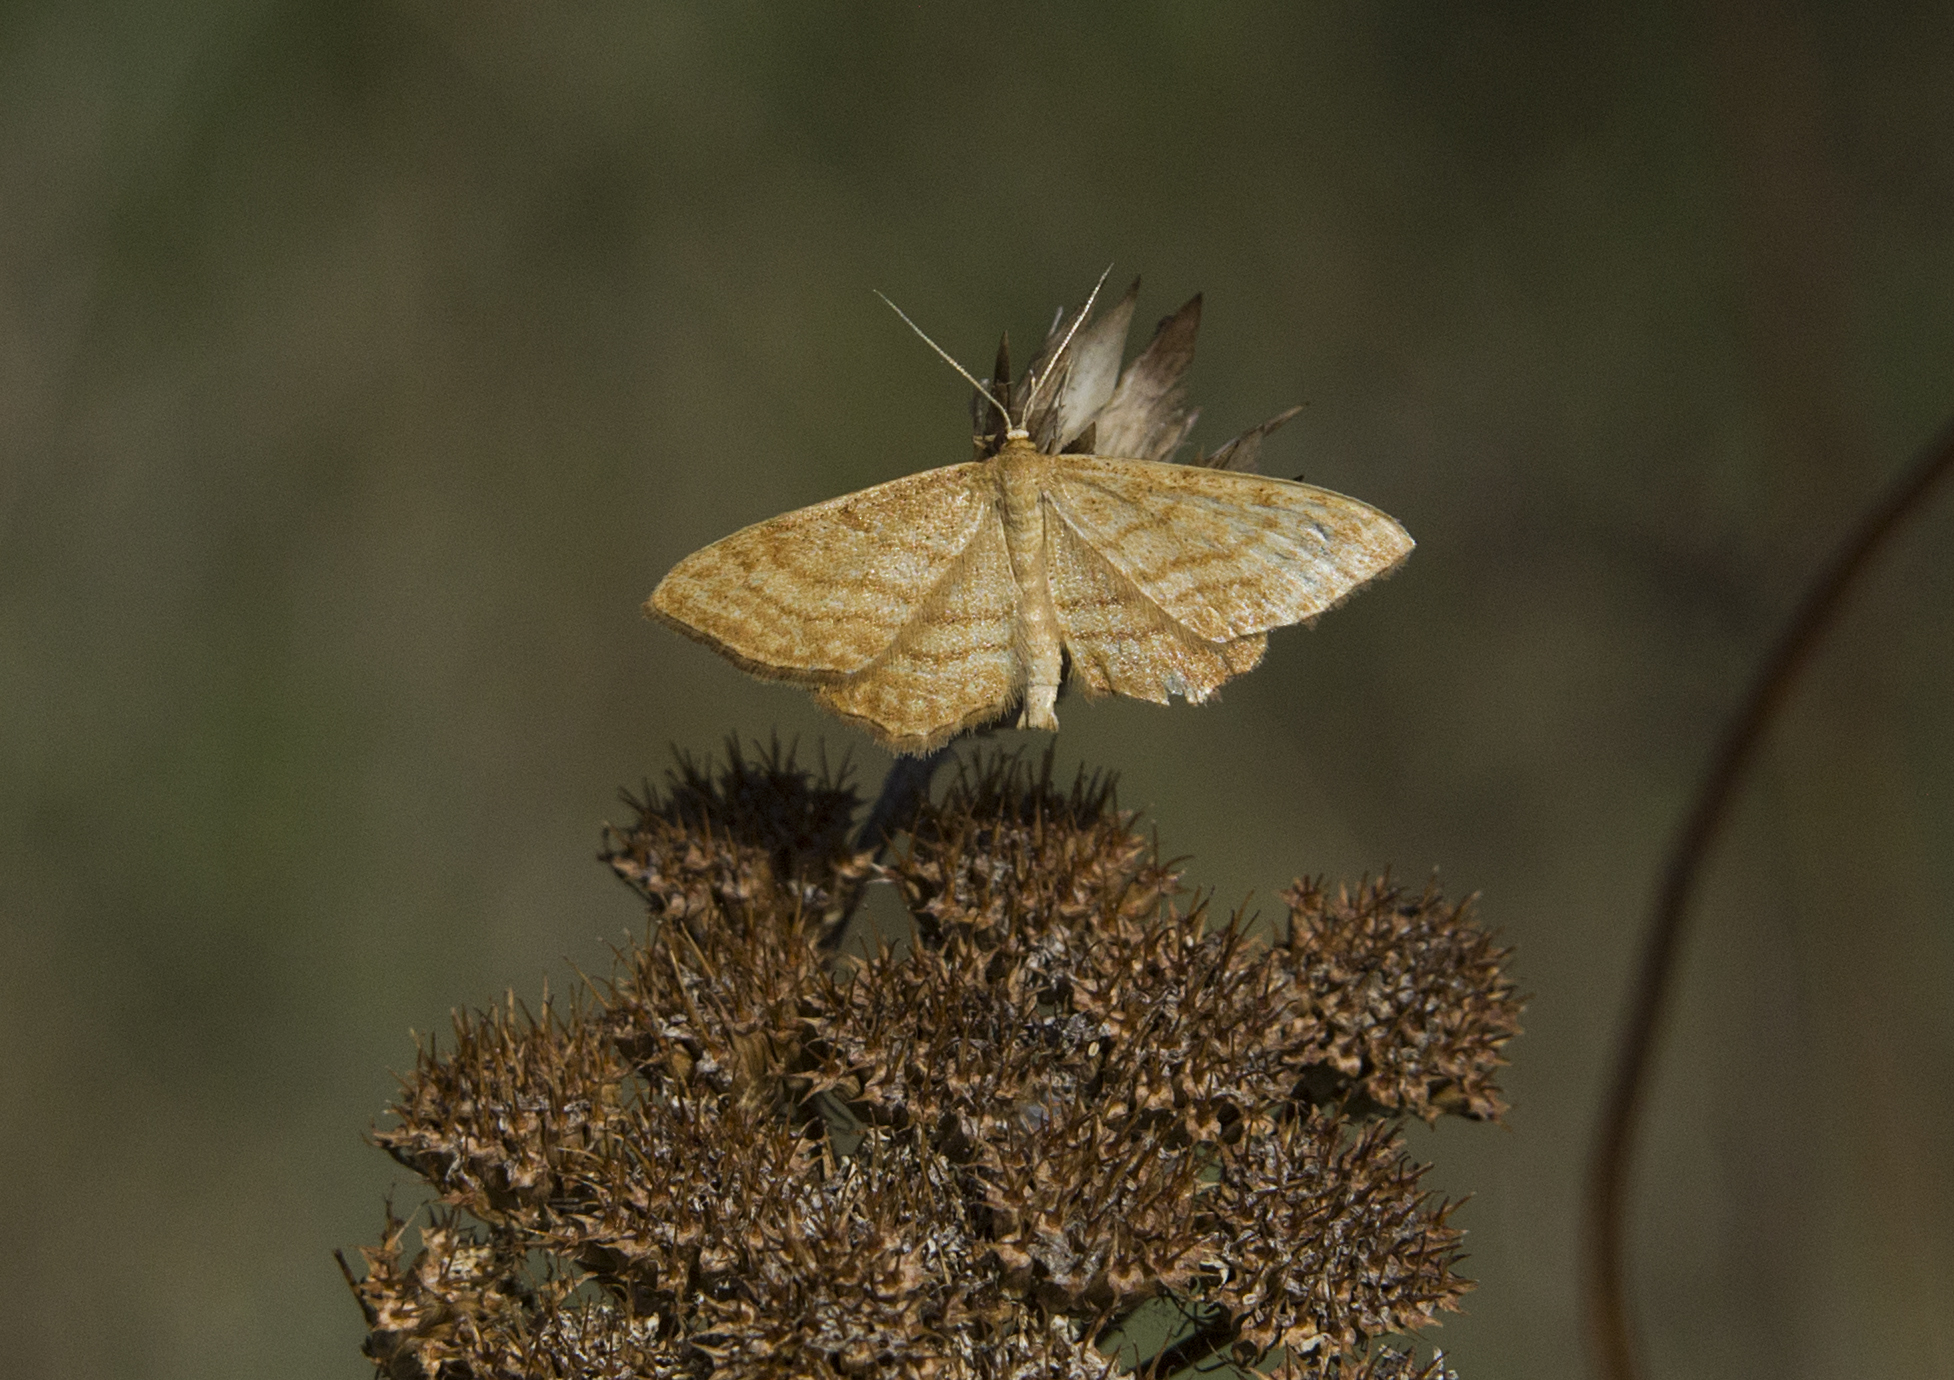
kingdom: Animalia
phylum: Arthropoda
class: Insecta
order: Lepidoptera
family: Geometridae
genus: Idaea
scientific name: Idaea ochrata
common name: Bright wave
